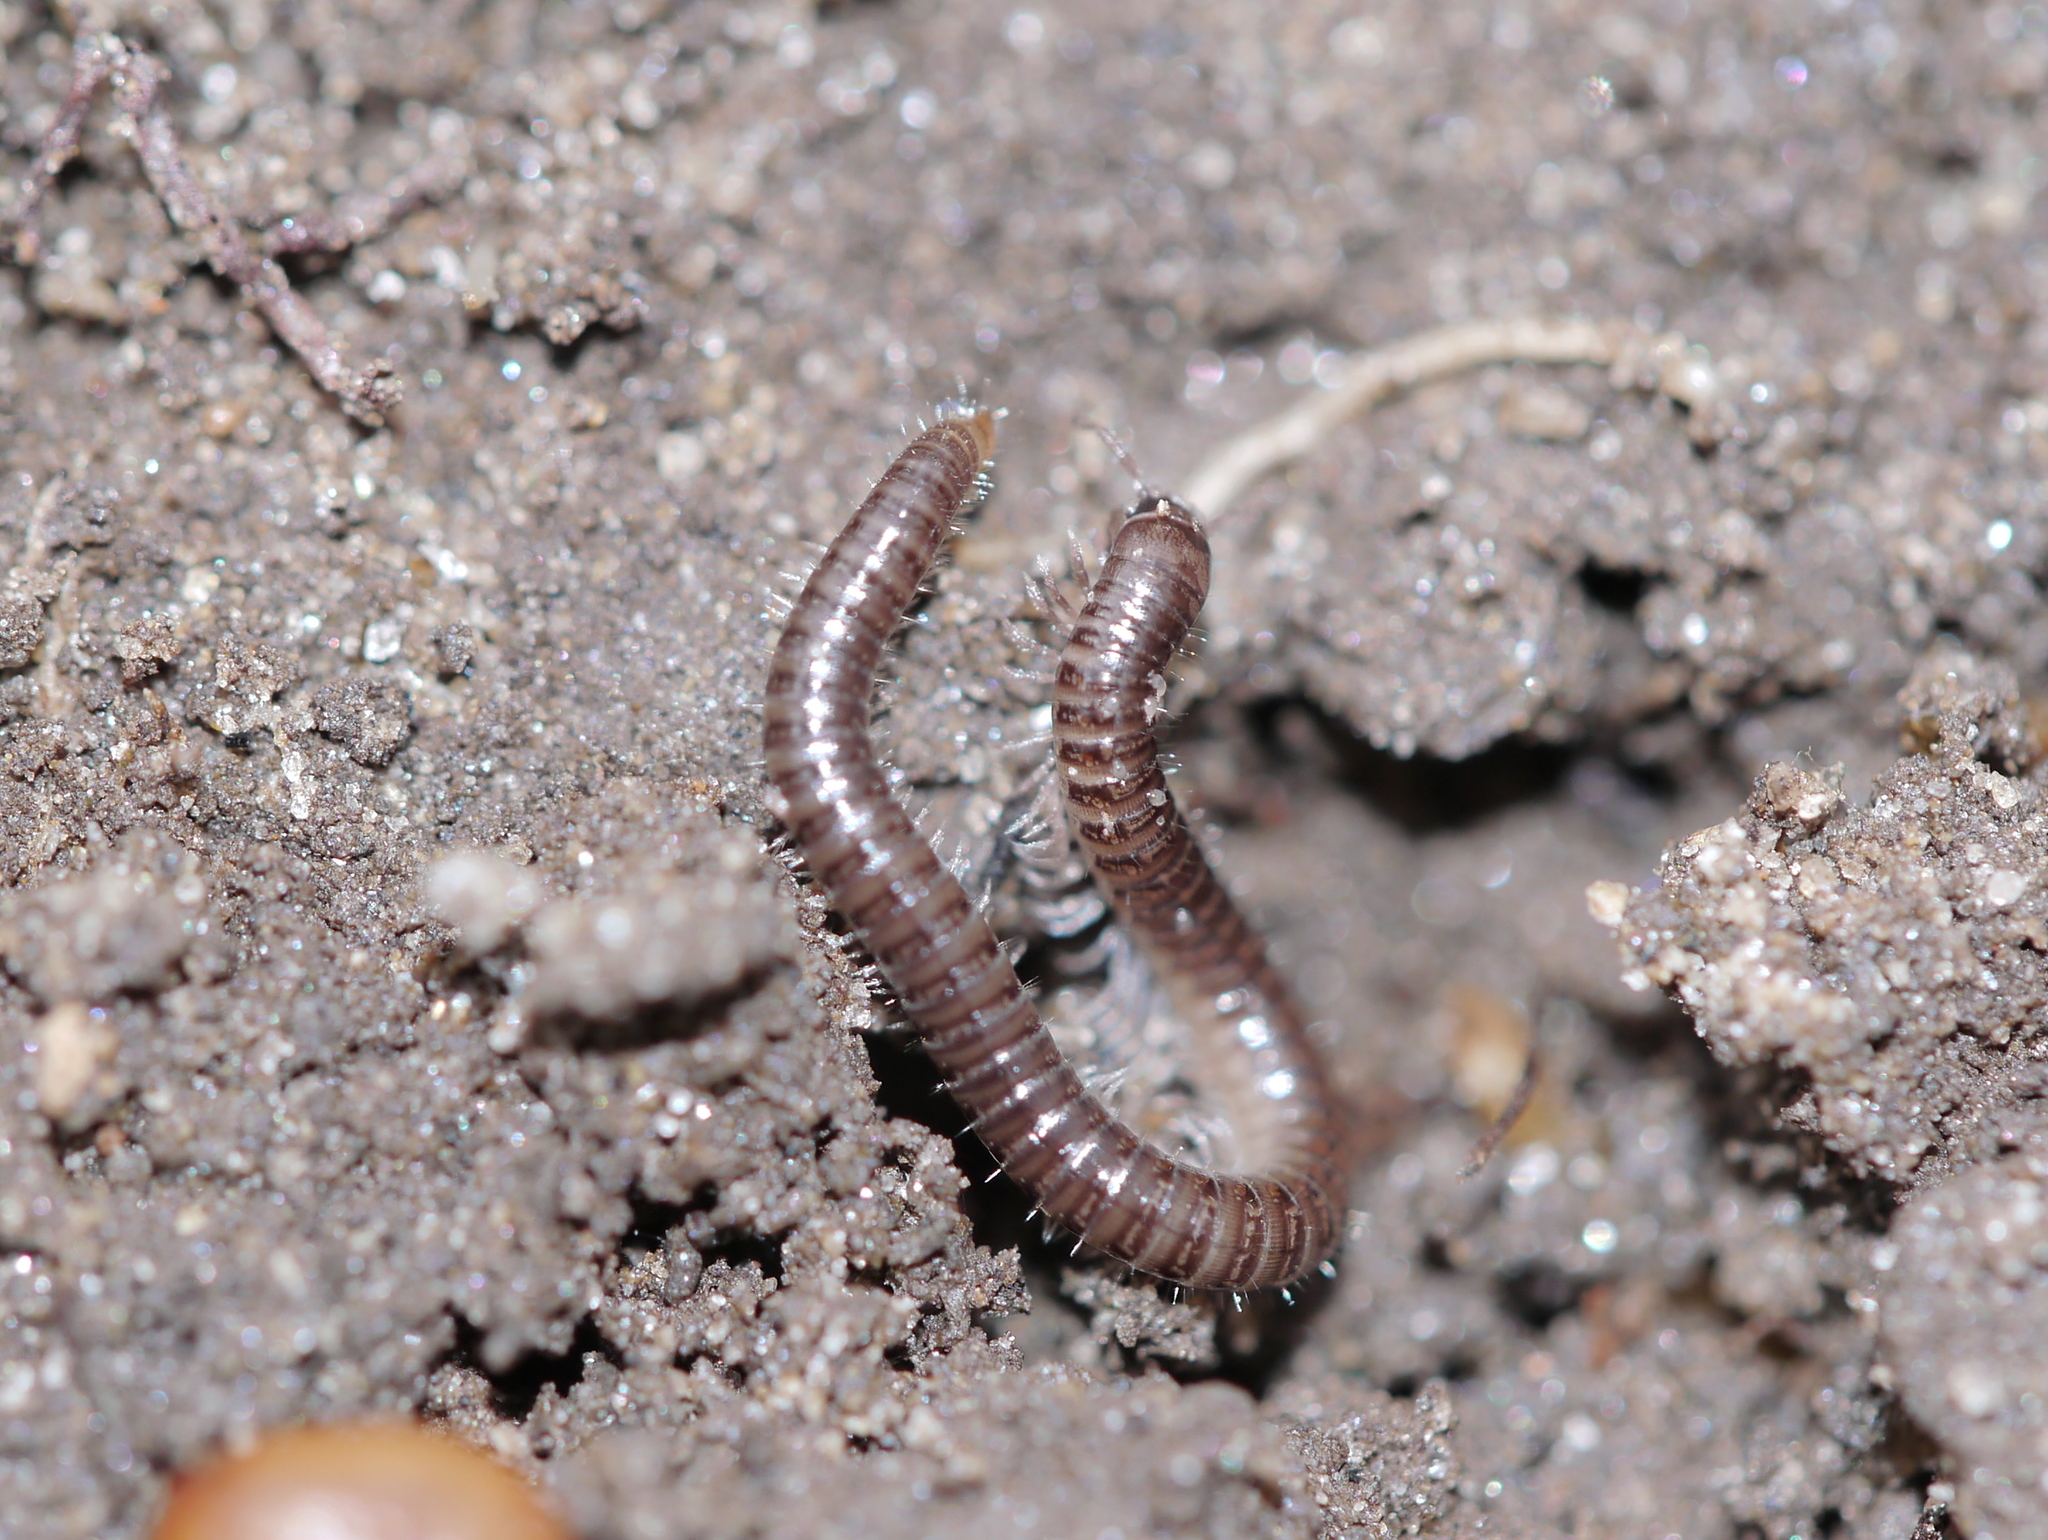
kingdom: Animalia
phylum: Arthropoda
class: Diplopoda
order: Julida
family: Julidae
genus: Ophyiulus
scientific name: Ophyiulus pilosus
